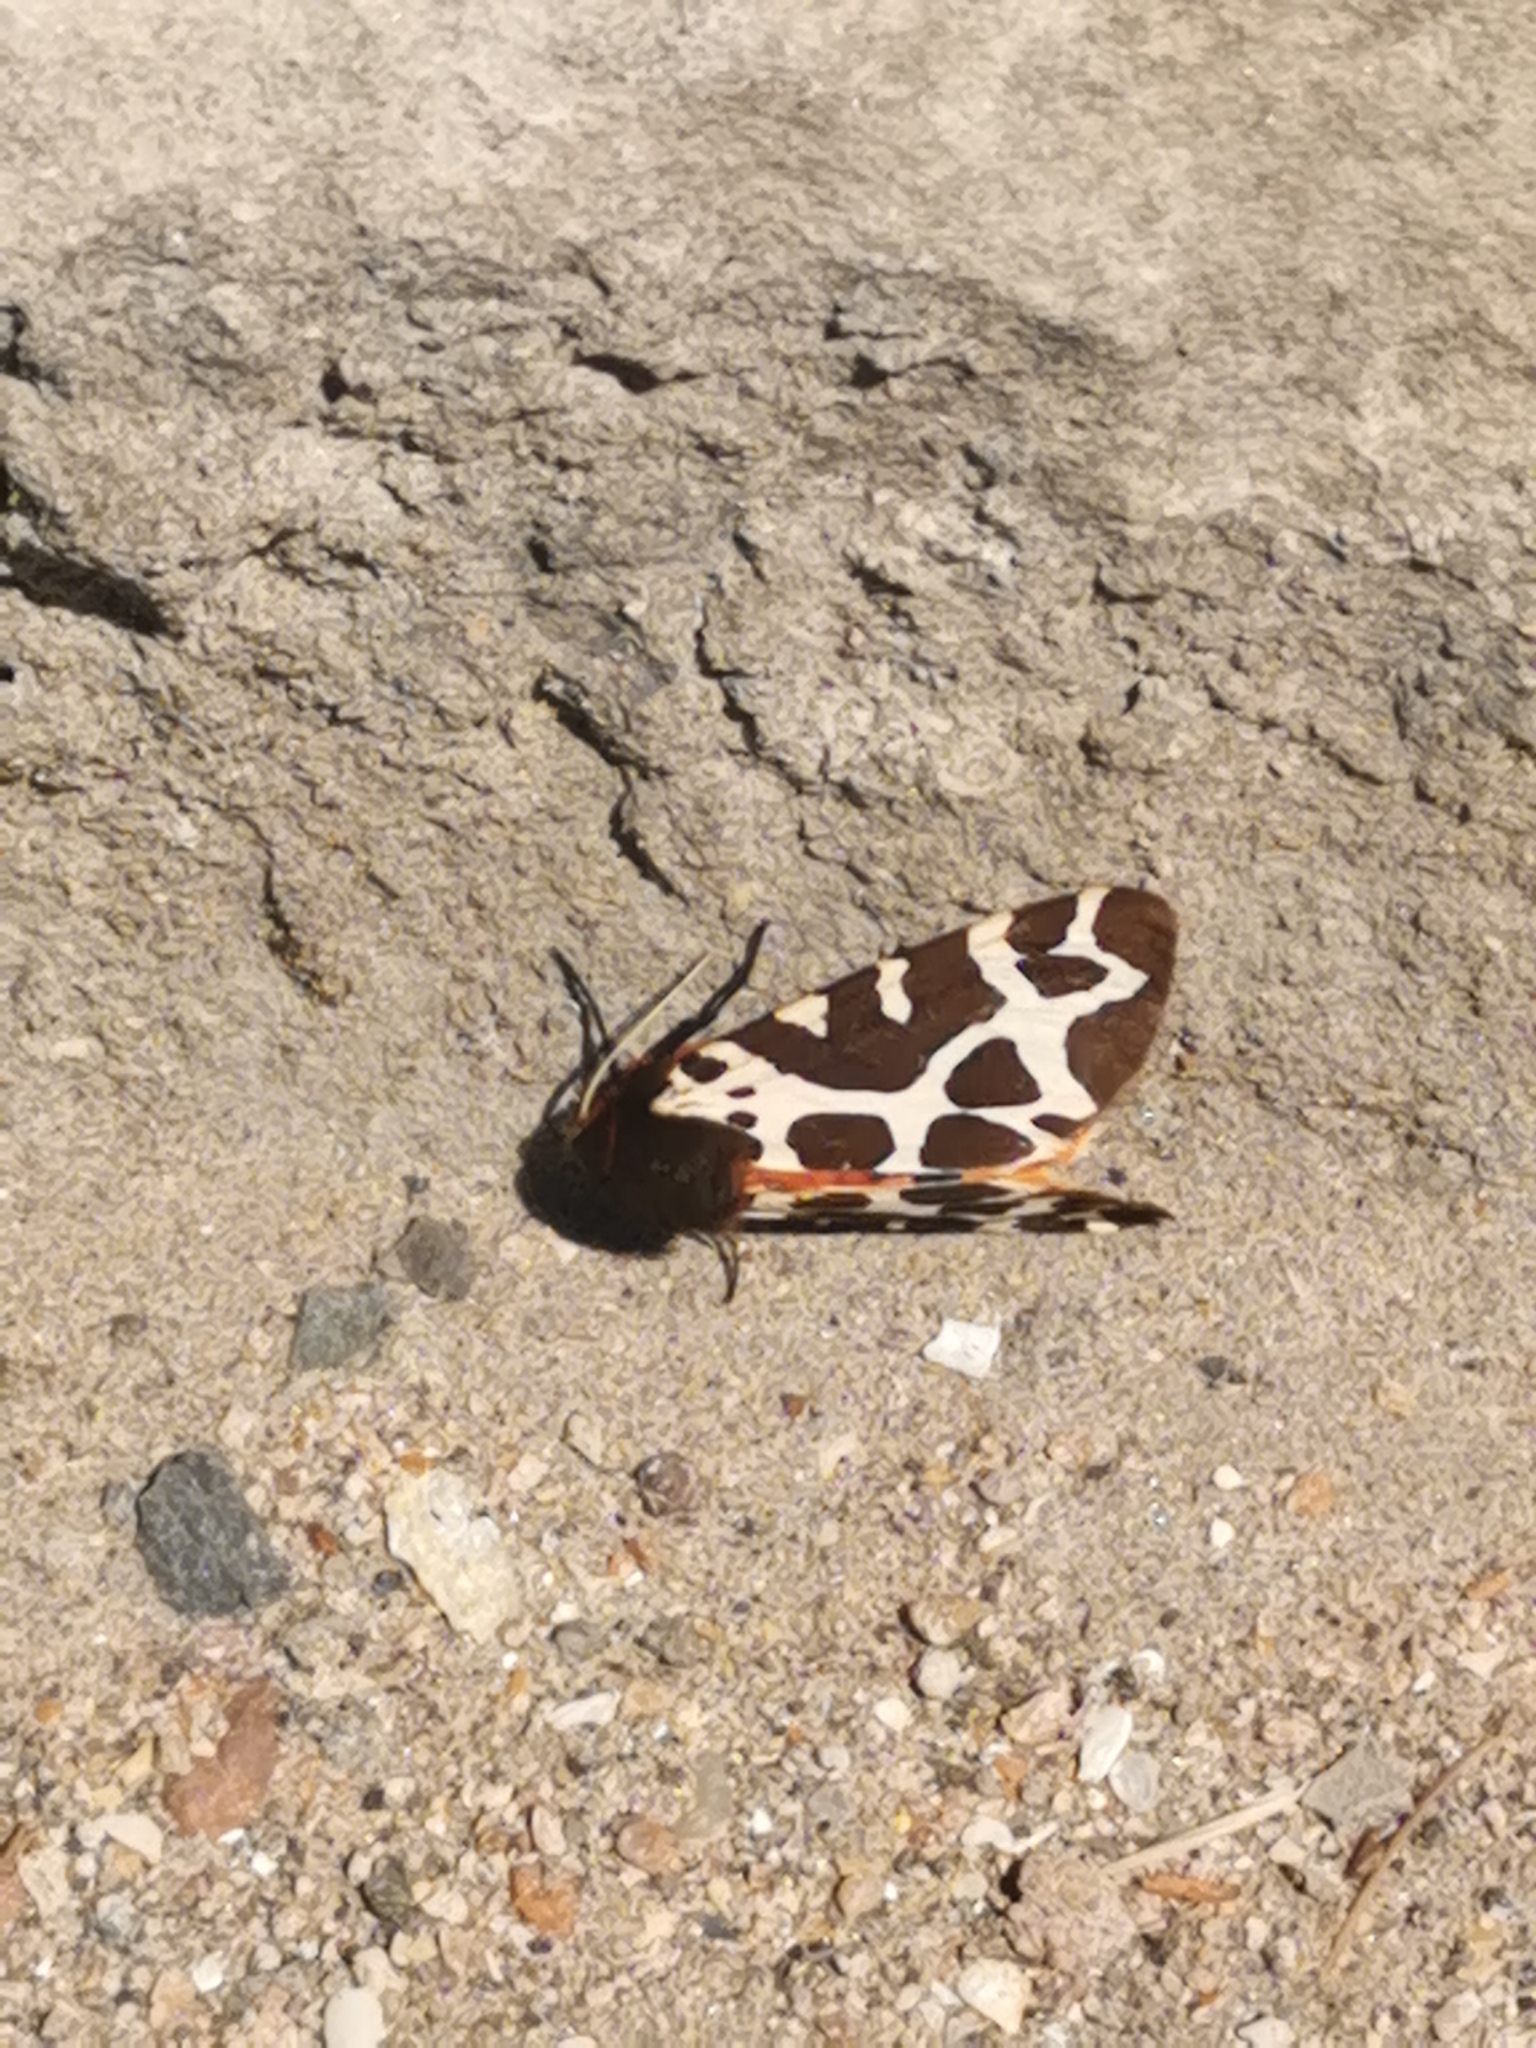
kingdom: Animalia
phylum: Arthropoda
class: Insecta
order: Lepidoptera
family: Erebidae
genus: Arctia
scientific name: Arctia caja
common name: Garden tiger
